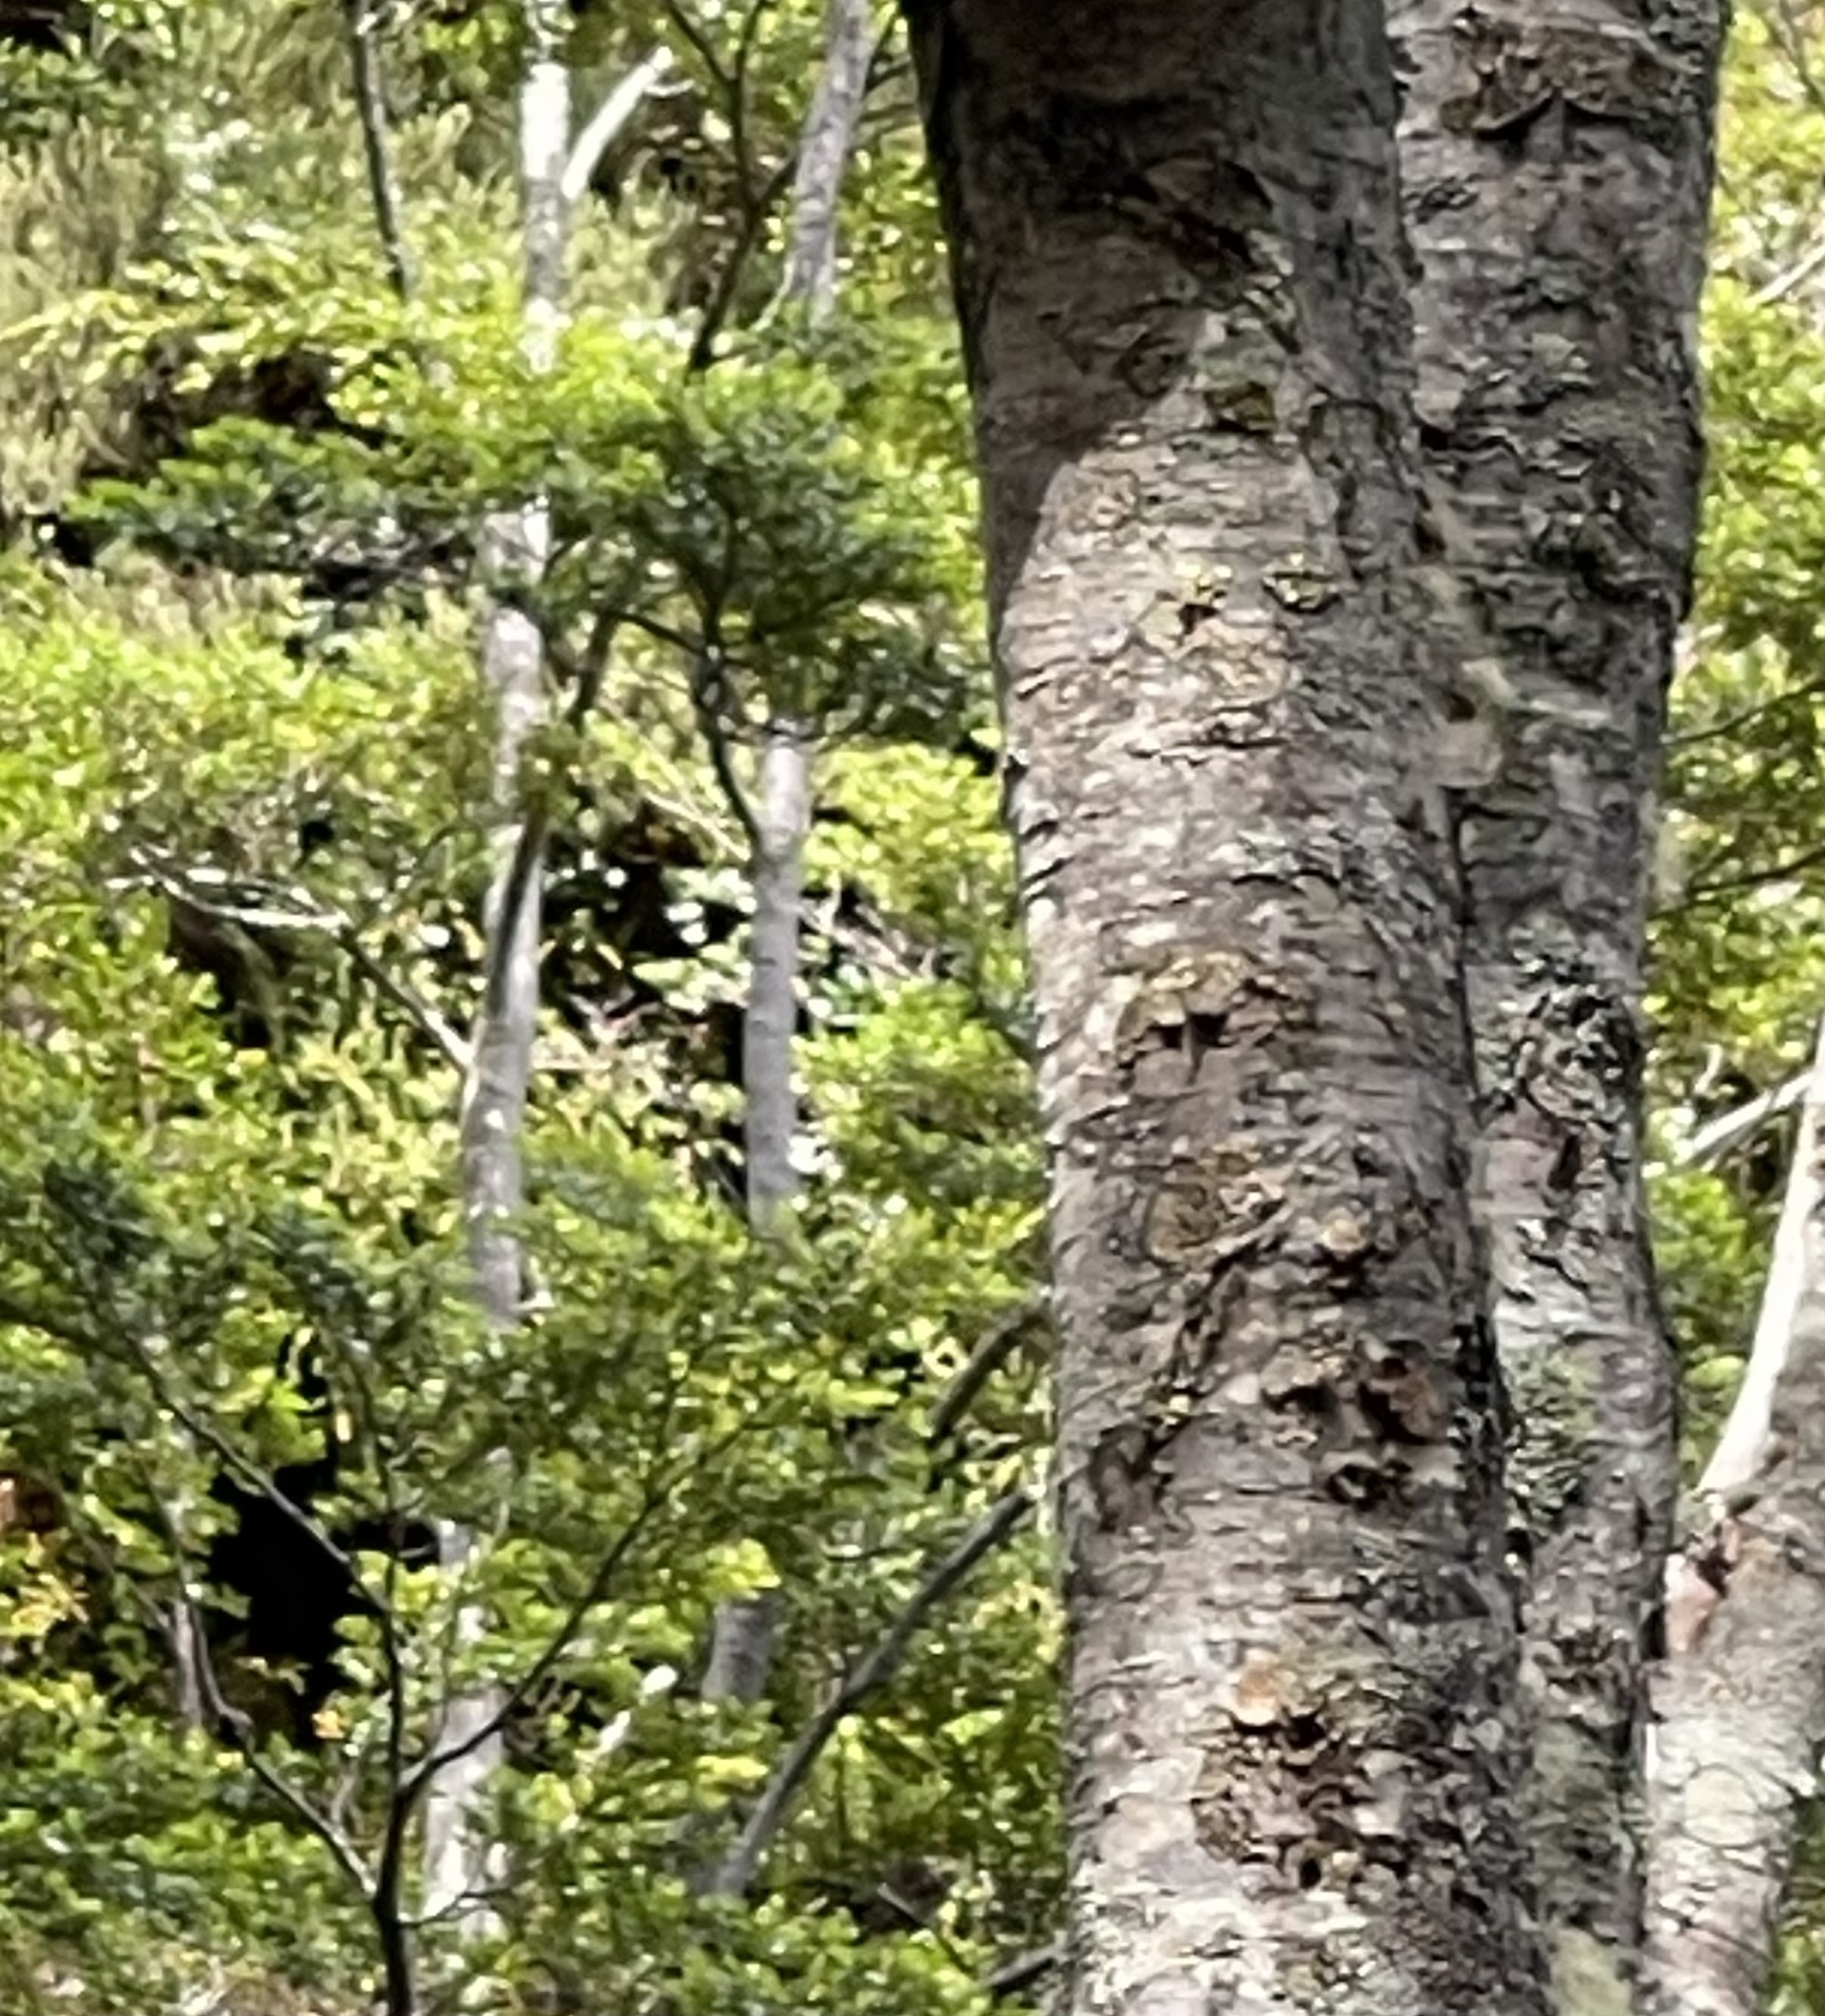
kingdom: Plantae
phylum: Tracheophyta
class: Magnoliopsida
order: Fagales
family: Nothofagaceae
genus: Nothofagus
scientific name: Nothofagus betuloides
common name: Magellan's beech
